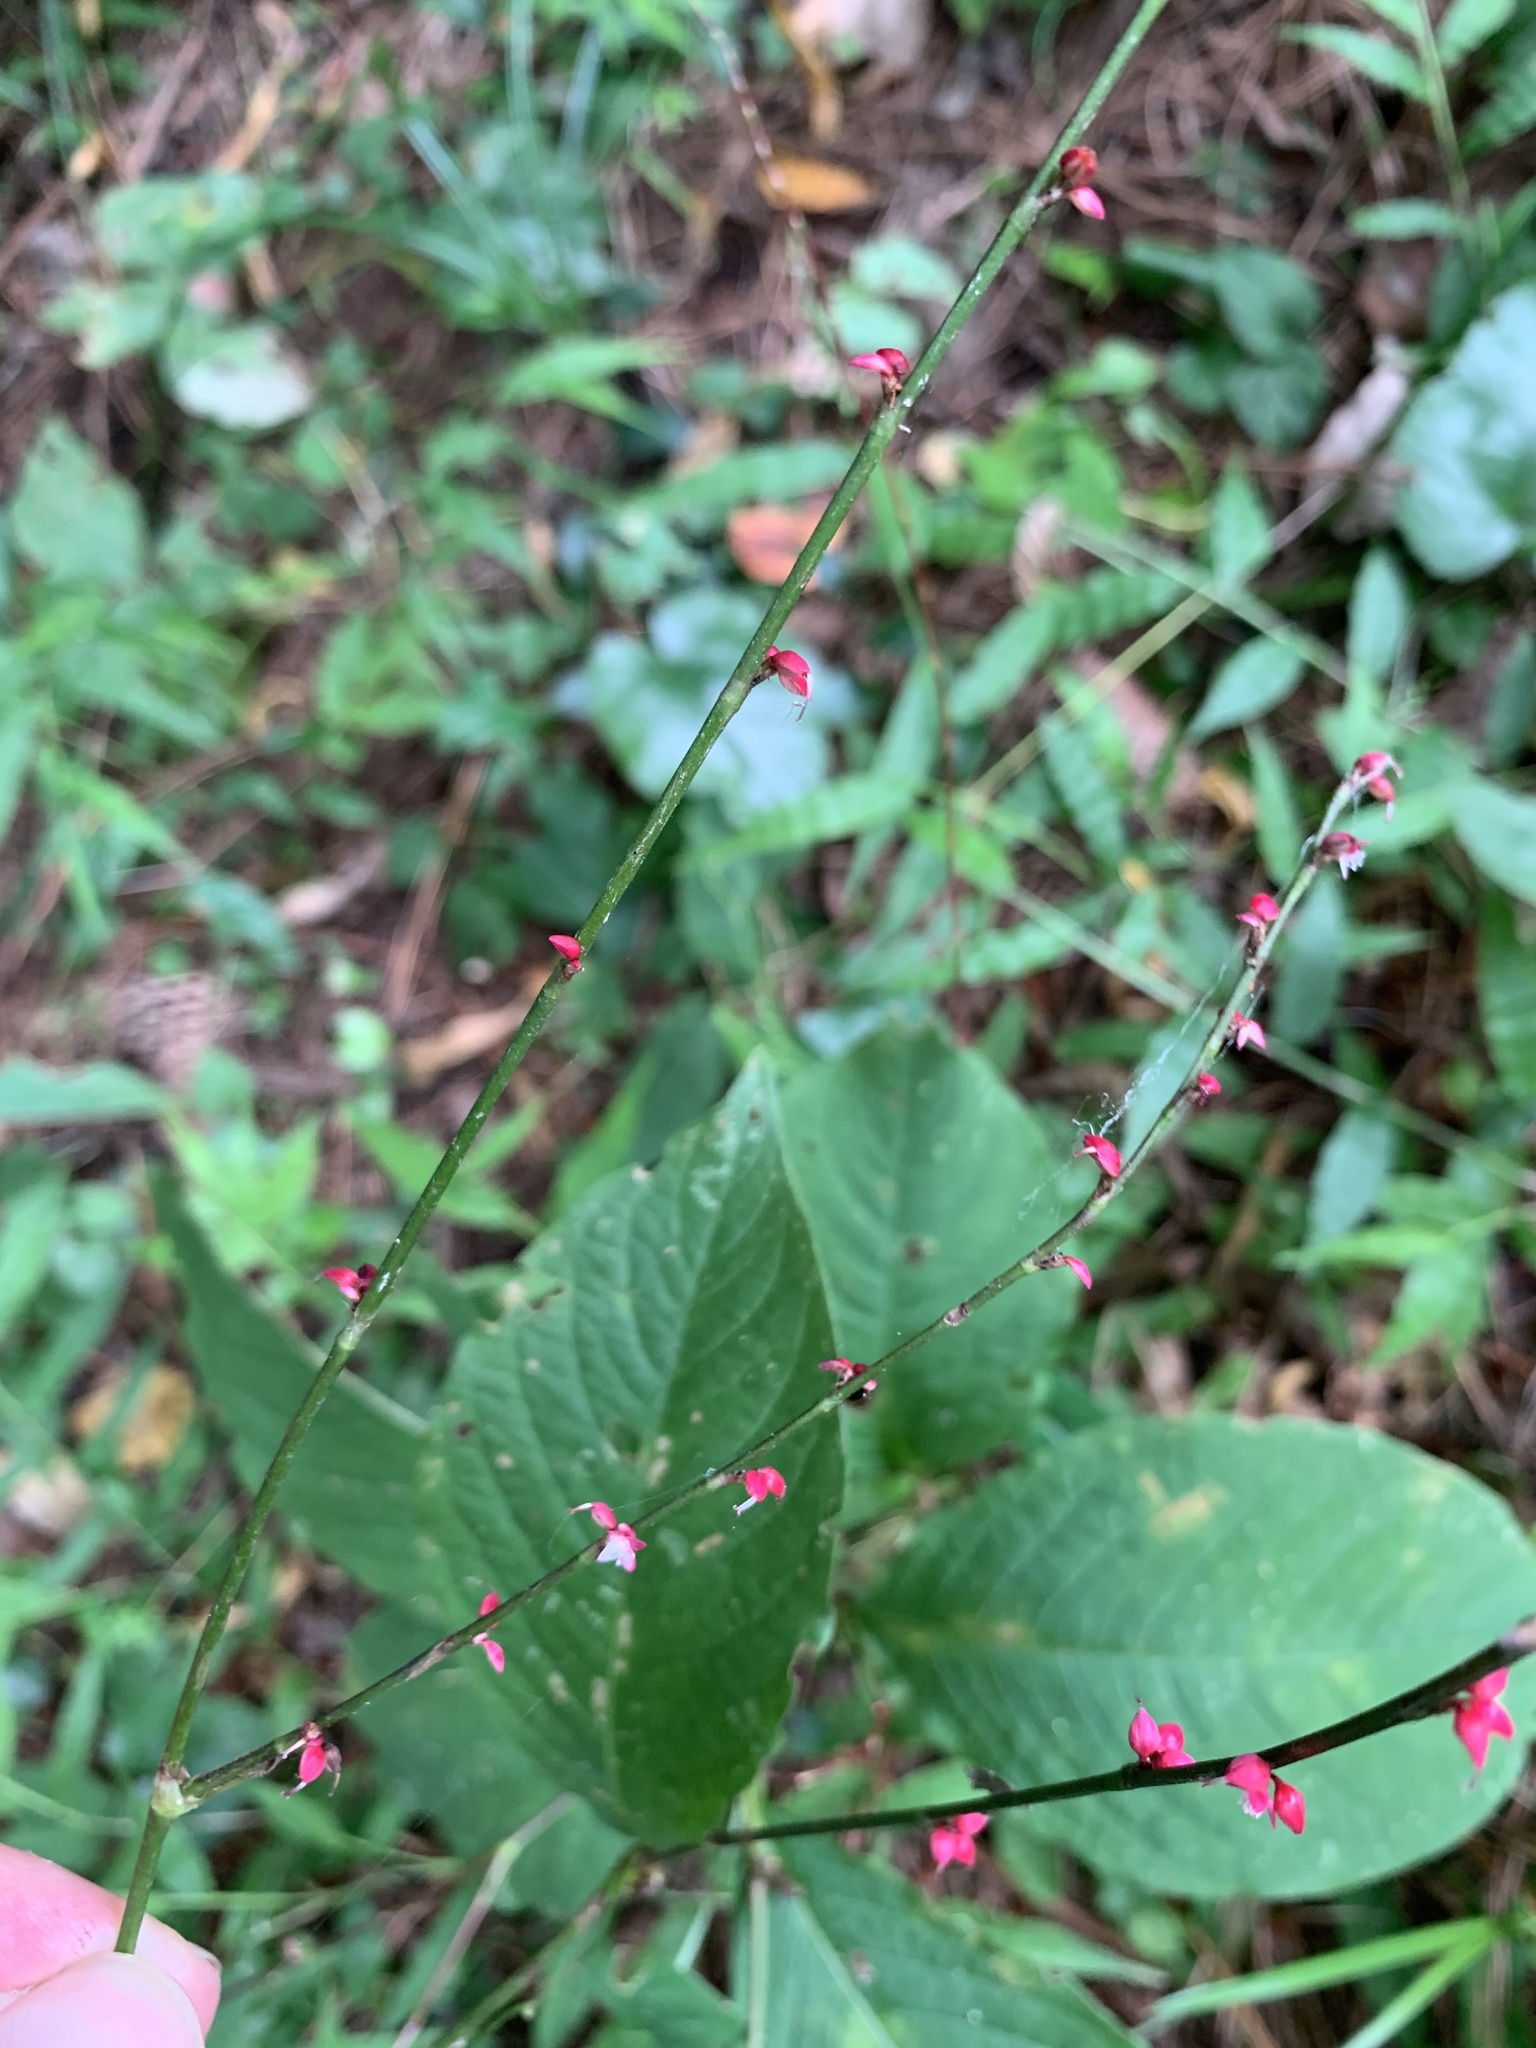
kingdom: Plantae
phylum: Tracheophyta
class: Magnoliopsida
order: Caryophyllales
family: Polygonaceae
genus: Persicaria
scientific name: Persicaria filiformis
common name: Asian jumpseed
